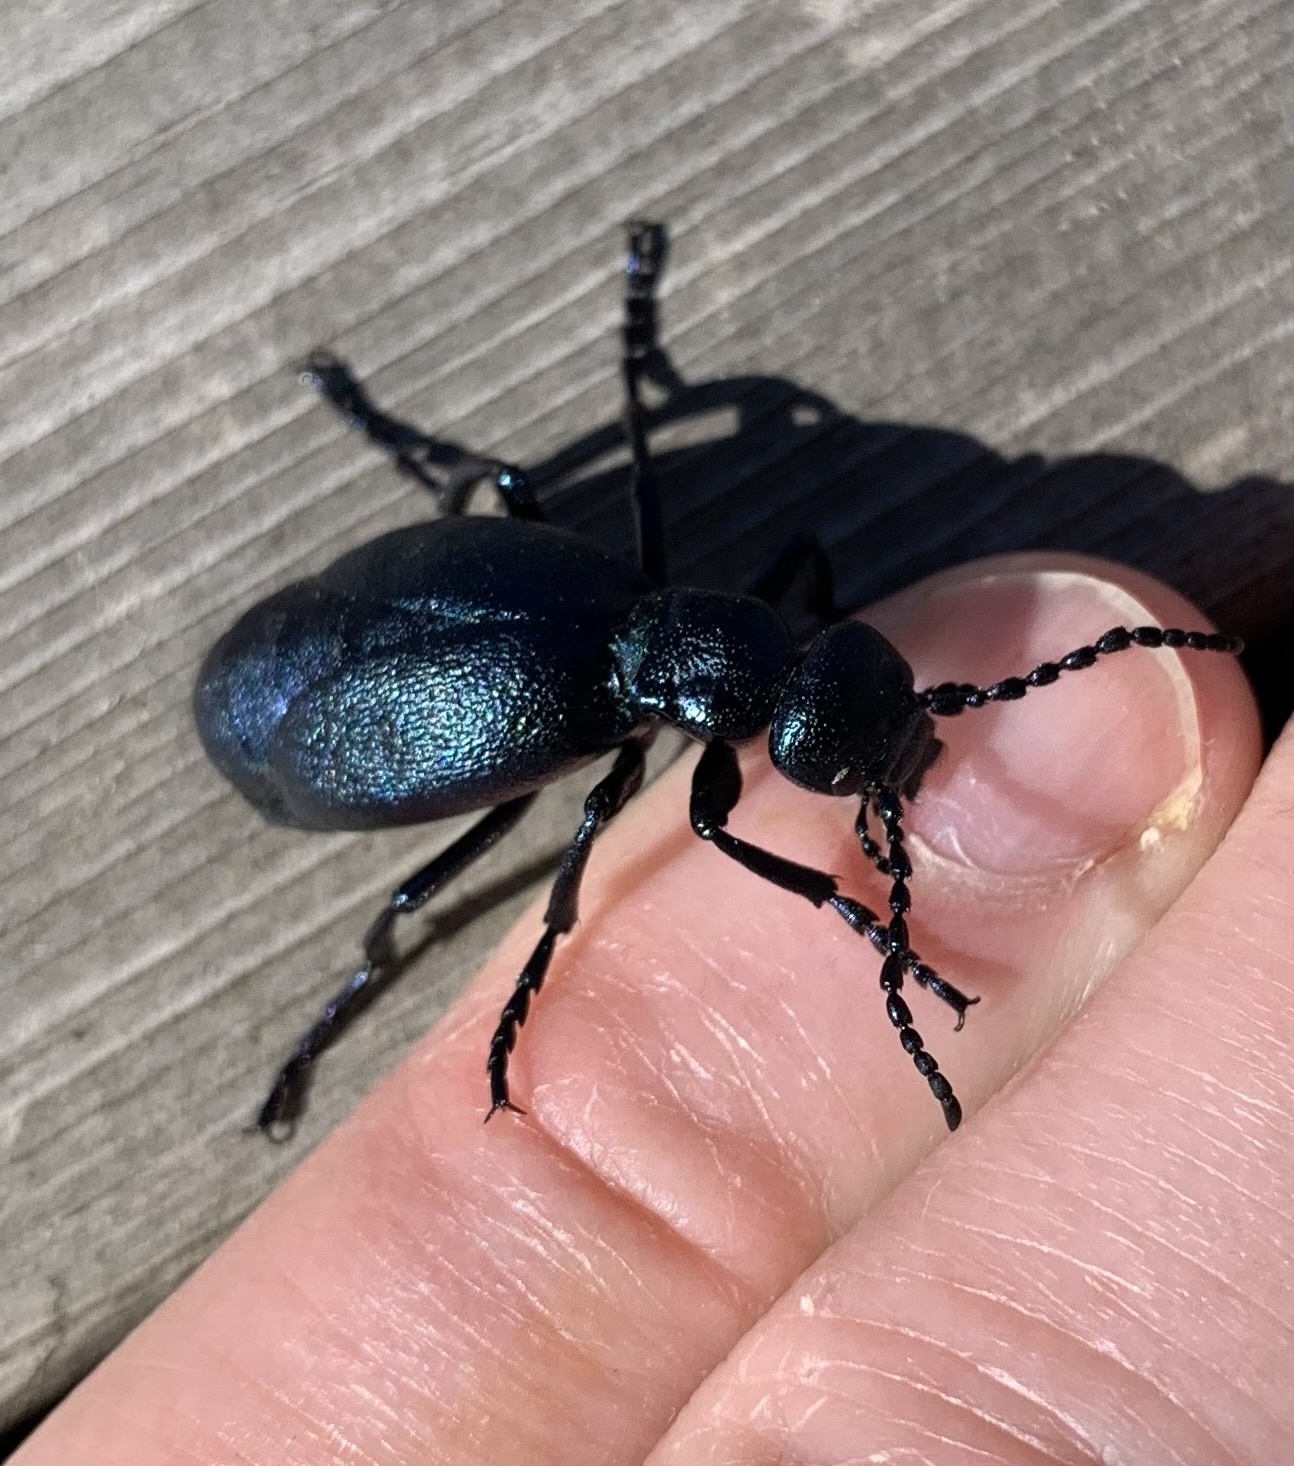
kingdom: Animalia
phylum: Arthropoda
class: Insecta
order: Coleoptera
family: Meloidae
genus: Meloe
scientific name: Meloe violaceus
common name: Violet oil-beetle
